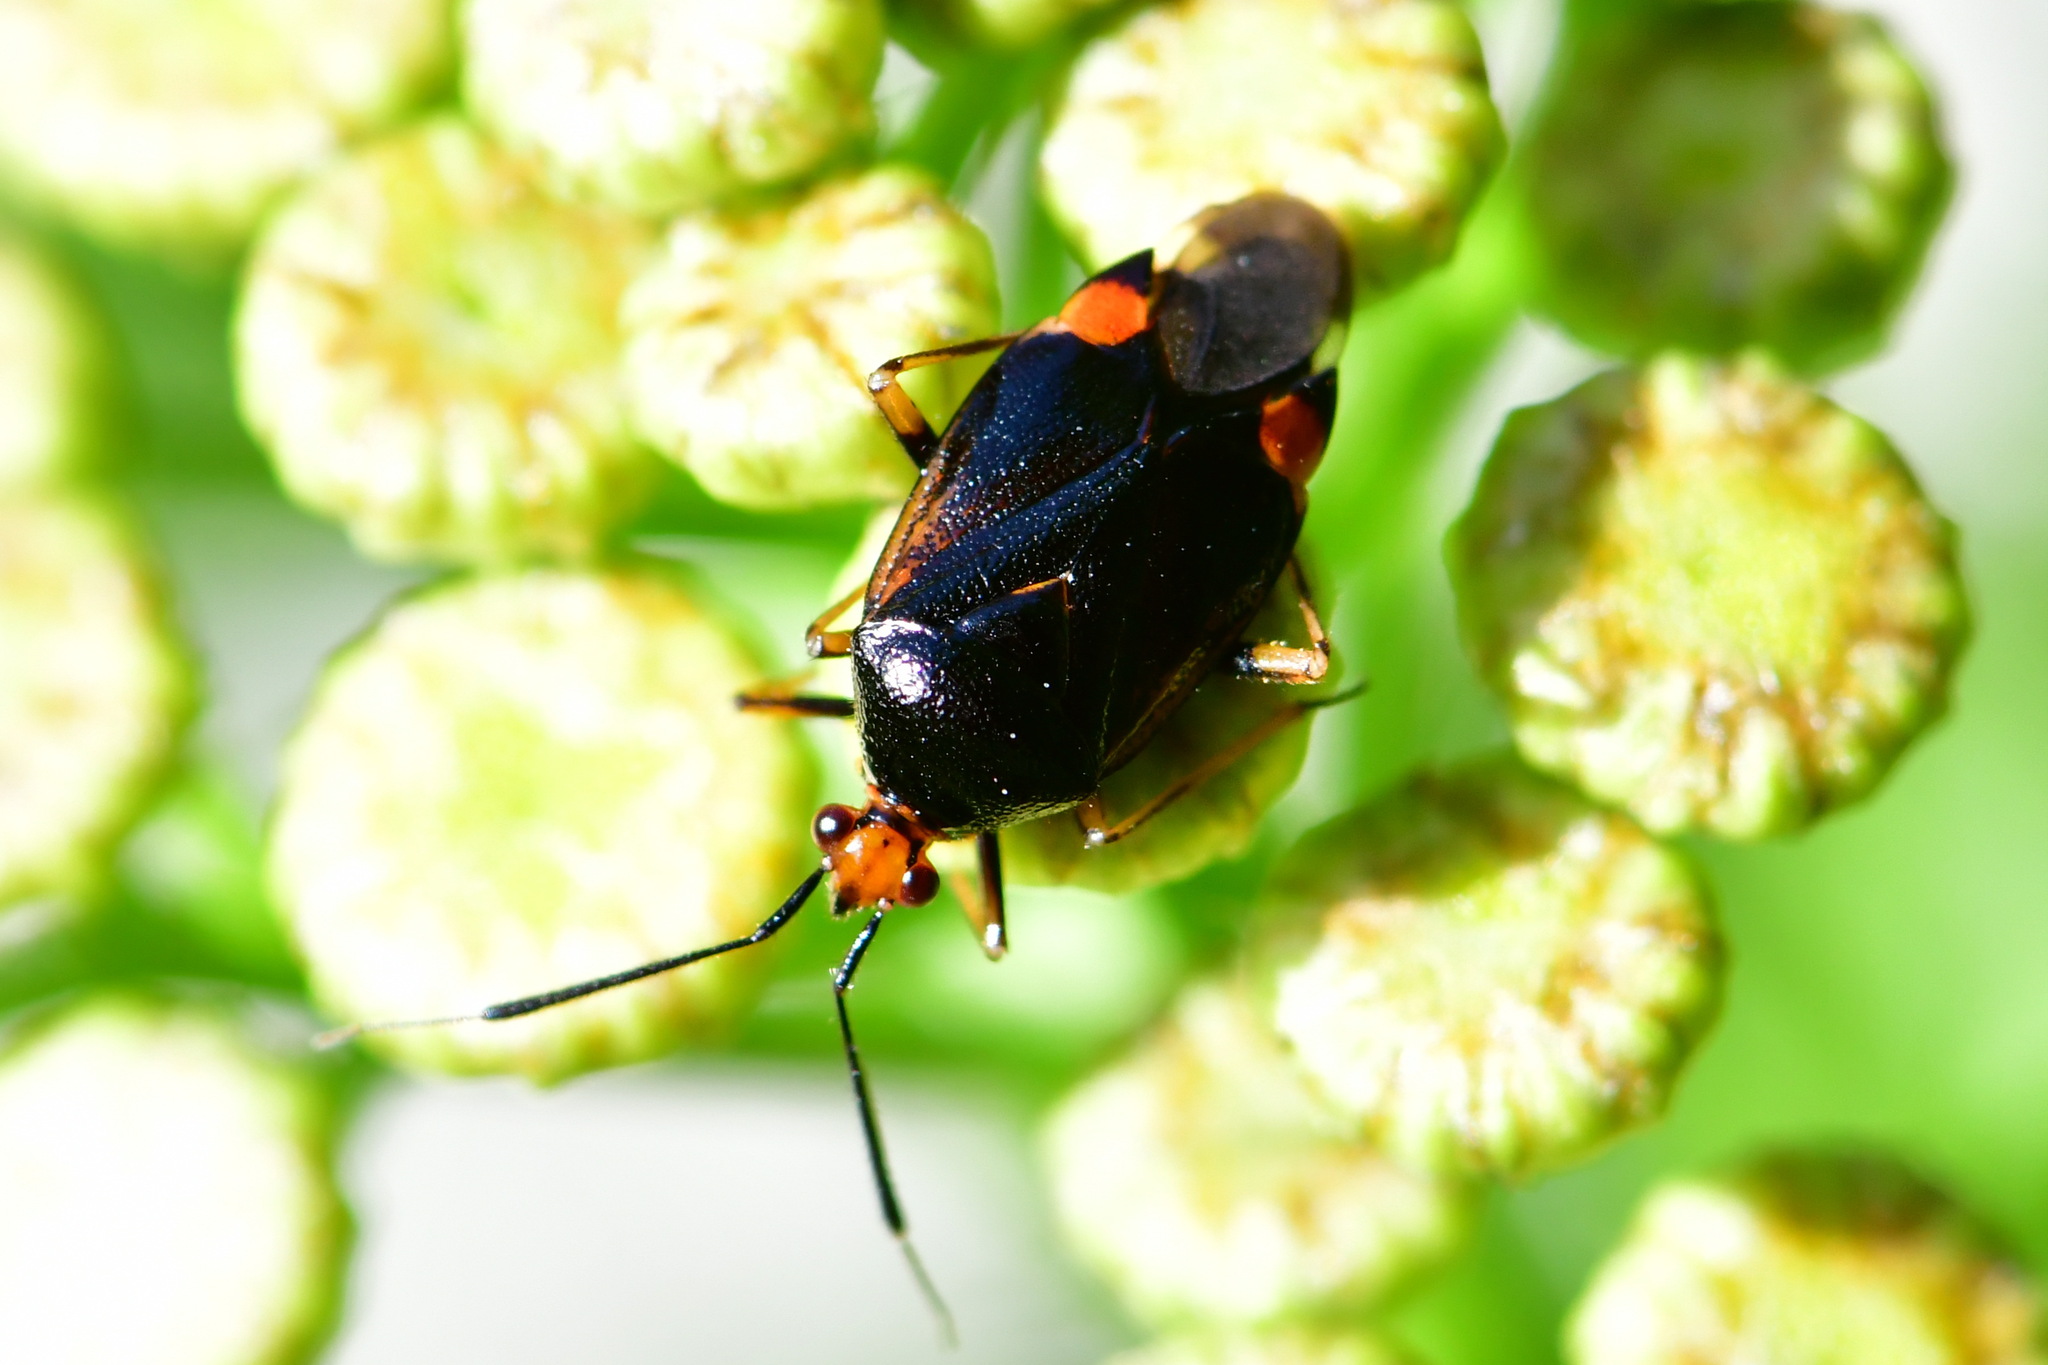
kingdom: Animalia
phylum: Arthropoda
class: Insecta
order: Hemiptera
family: Miridae
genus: Deraeocoris
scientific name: Deraeocoris ruber
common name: Plant bug
